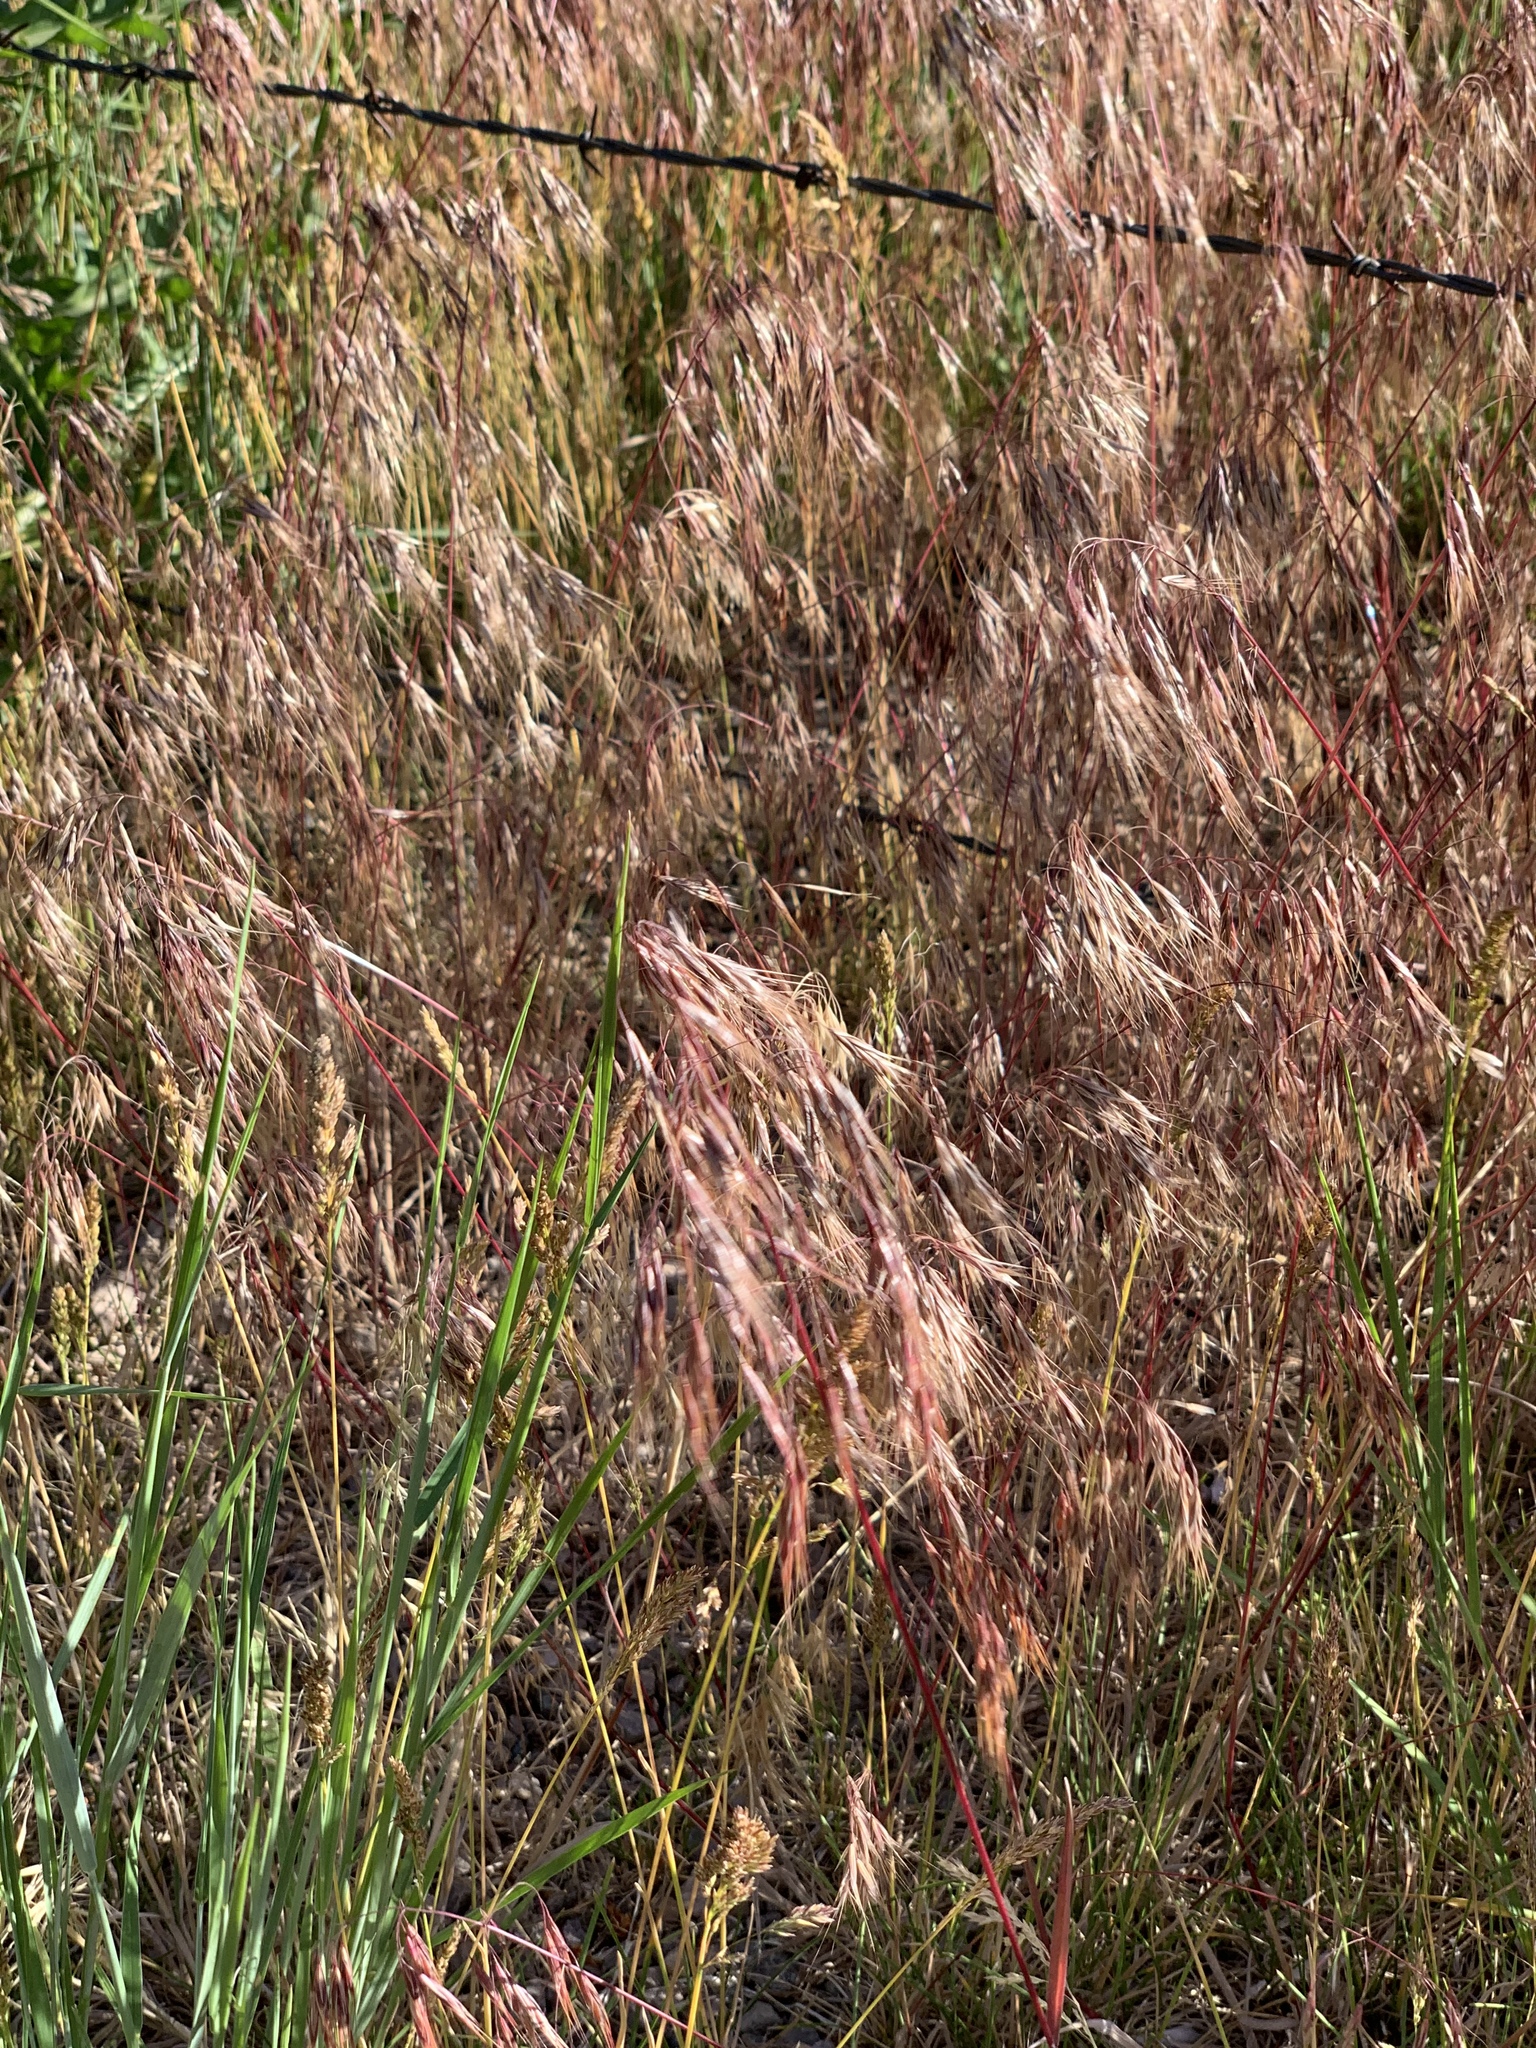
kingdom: Plantae
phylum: Tracheophyta
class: Liliopsida
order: Poales
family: Poaceae
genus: Bromus
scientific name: Bromus tectorum
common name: Cheatgrass
